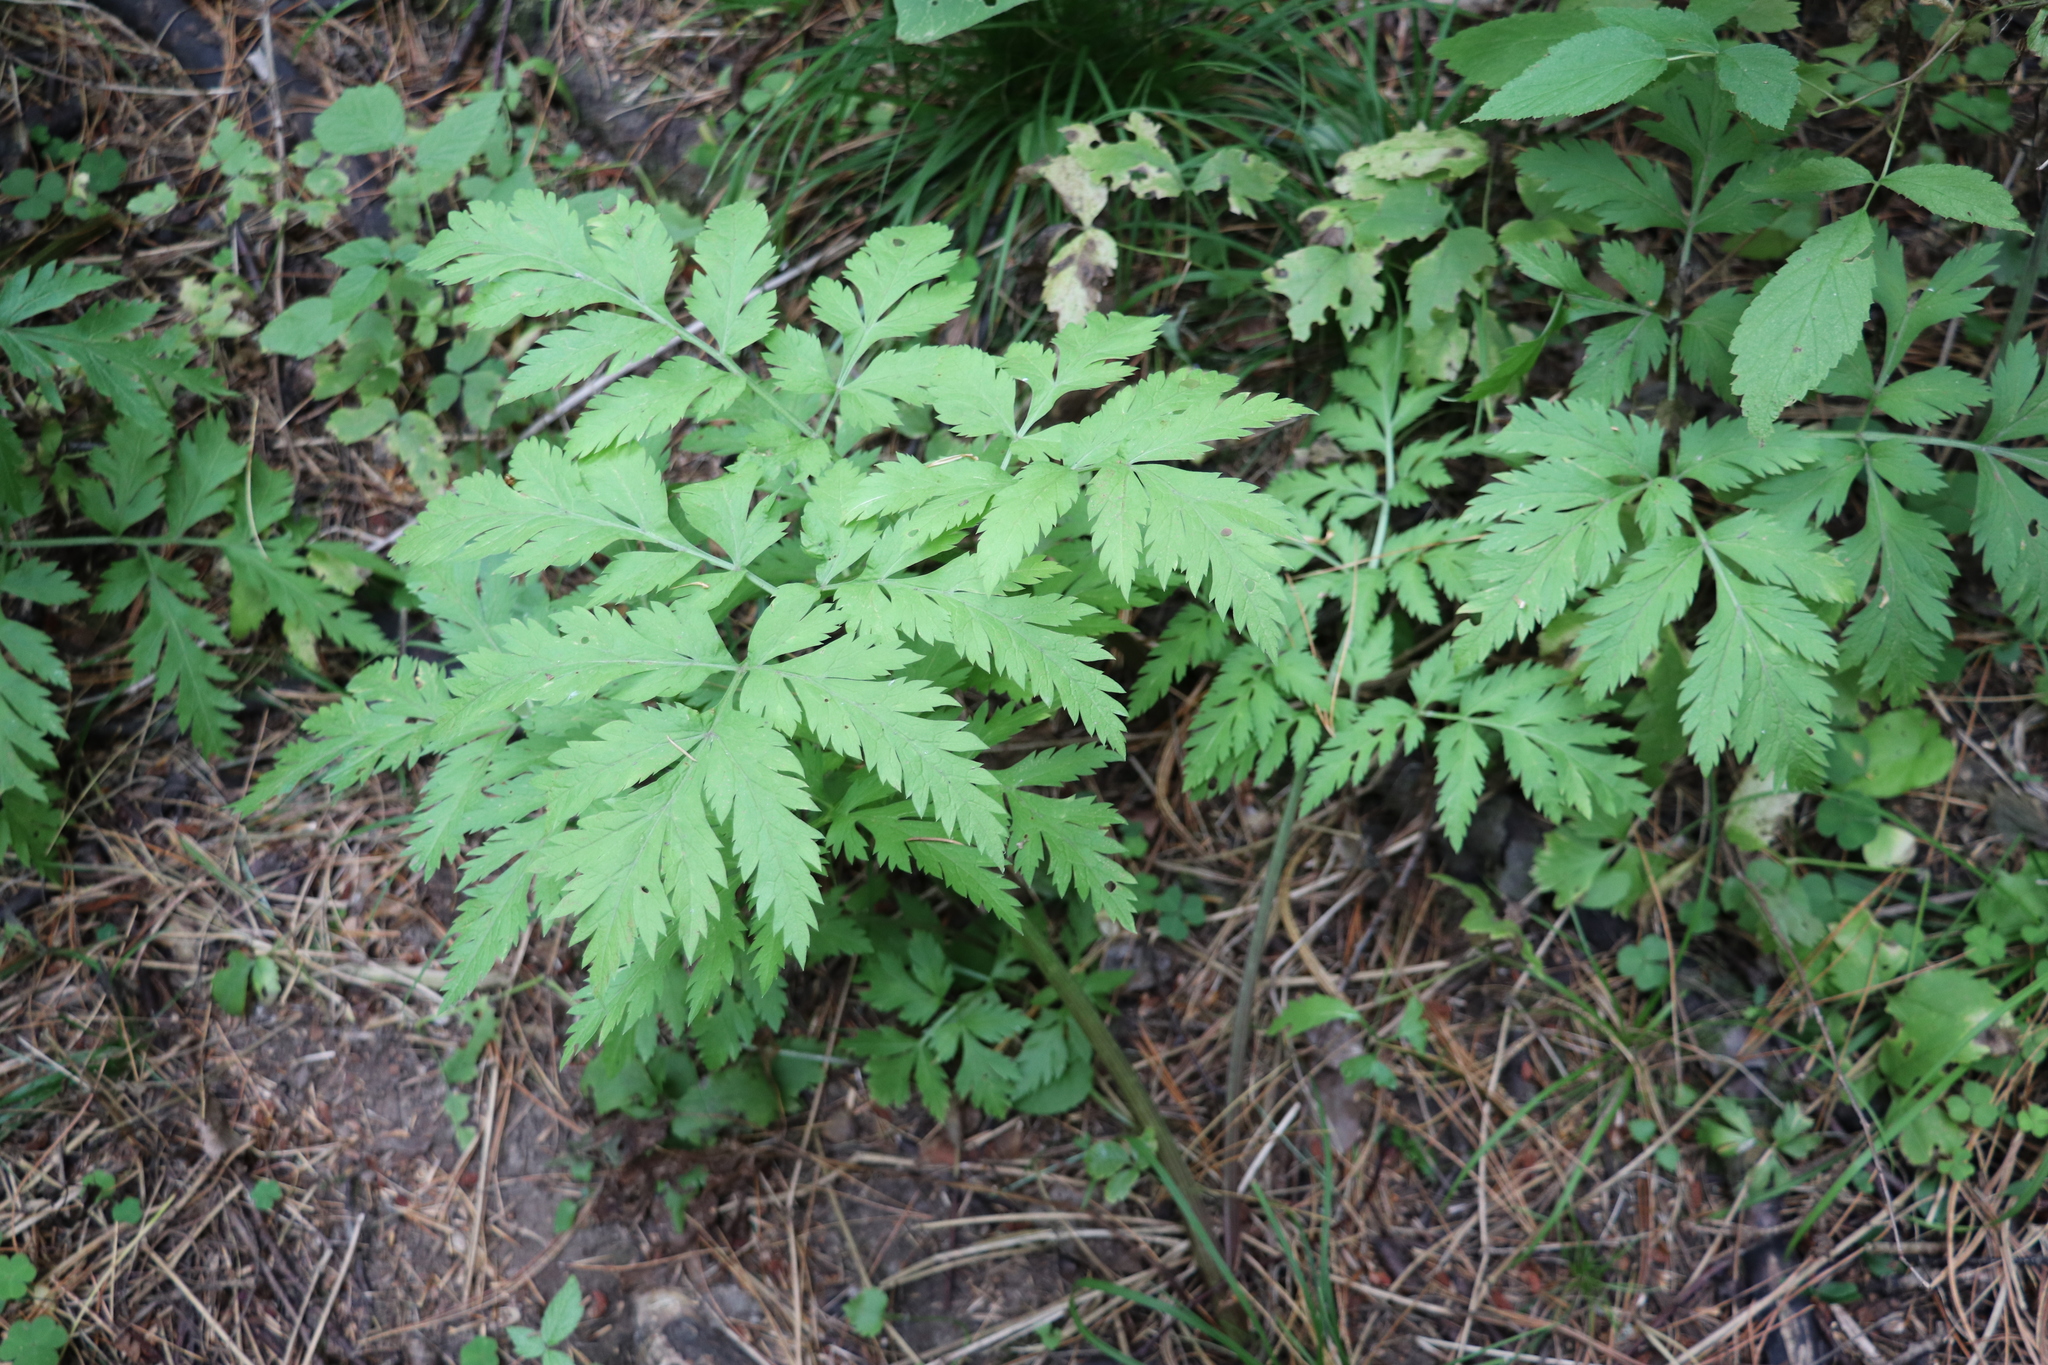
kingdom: Plantae
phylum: Tracheophyta
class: Magnoliopsida
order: Apiales
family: Apiaceae
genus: Pleurospermum
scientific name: Pleurospermum uralense
